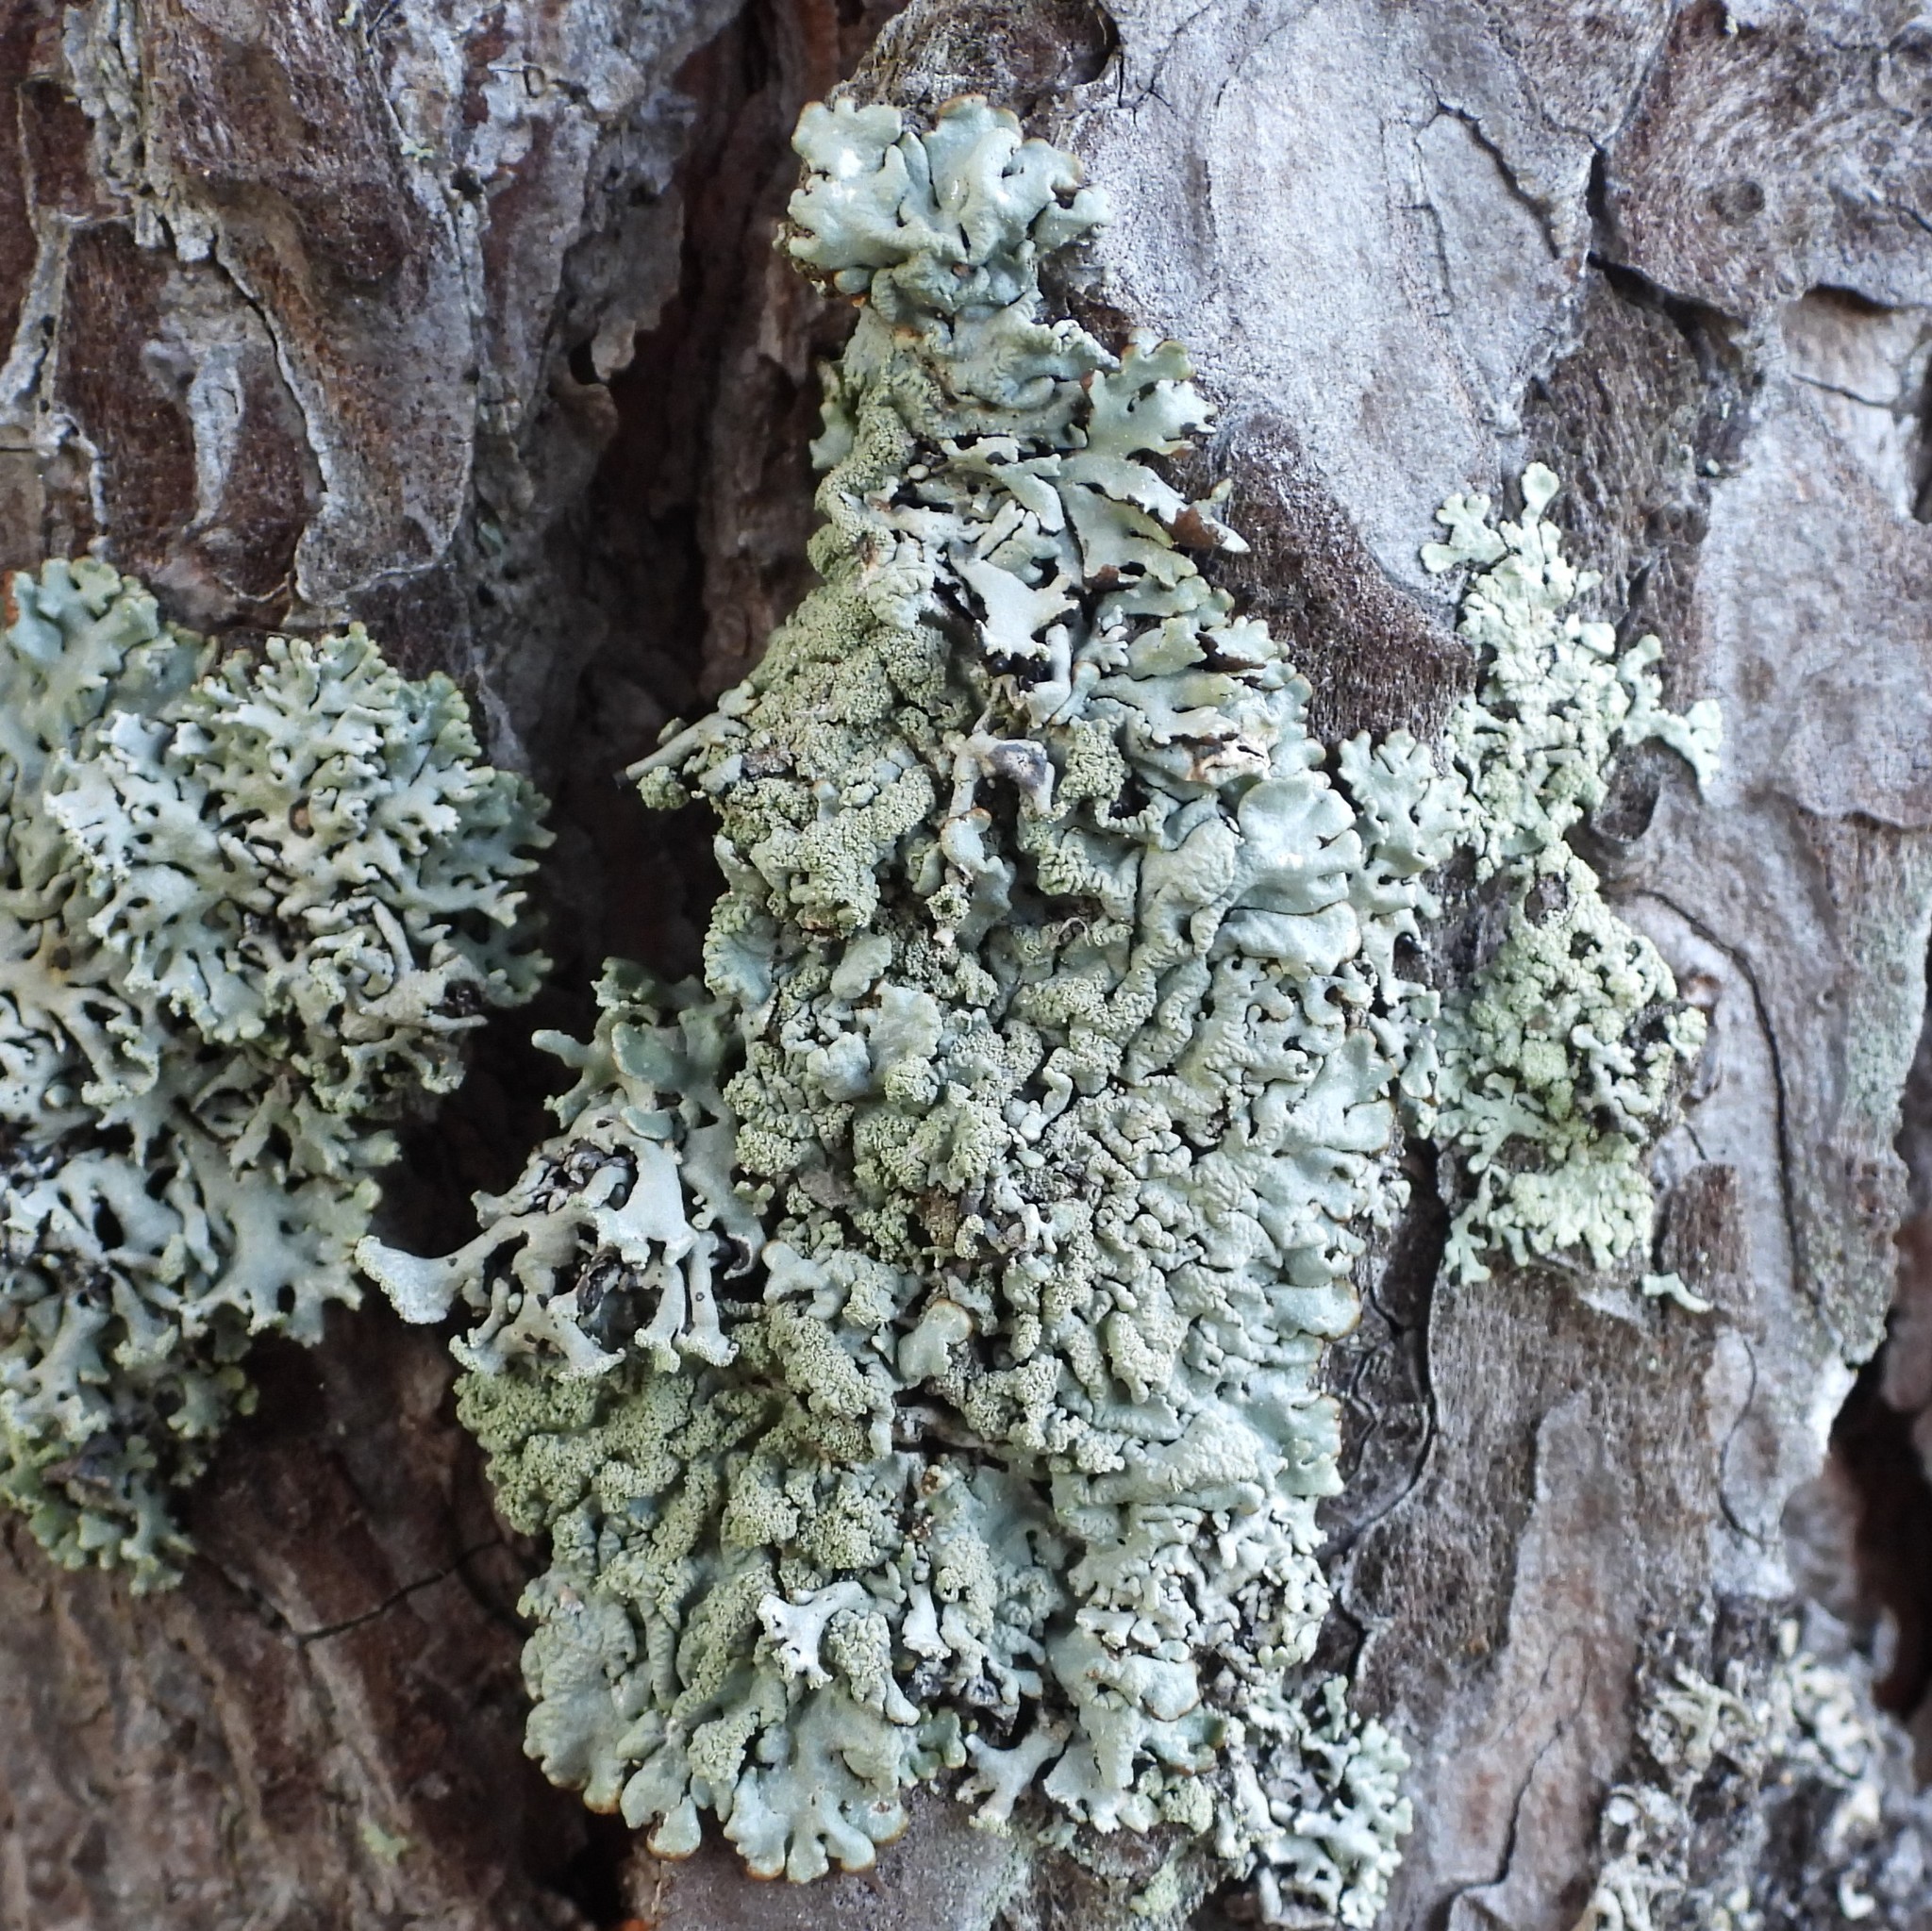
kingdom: Fungi
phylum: Ascomycota
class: Lecanoromycetes
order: Lecanorales
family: Parmeliaceae
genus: Hypogymnia
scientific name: Hypogymnia farinacea
